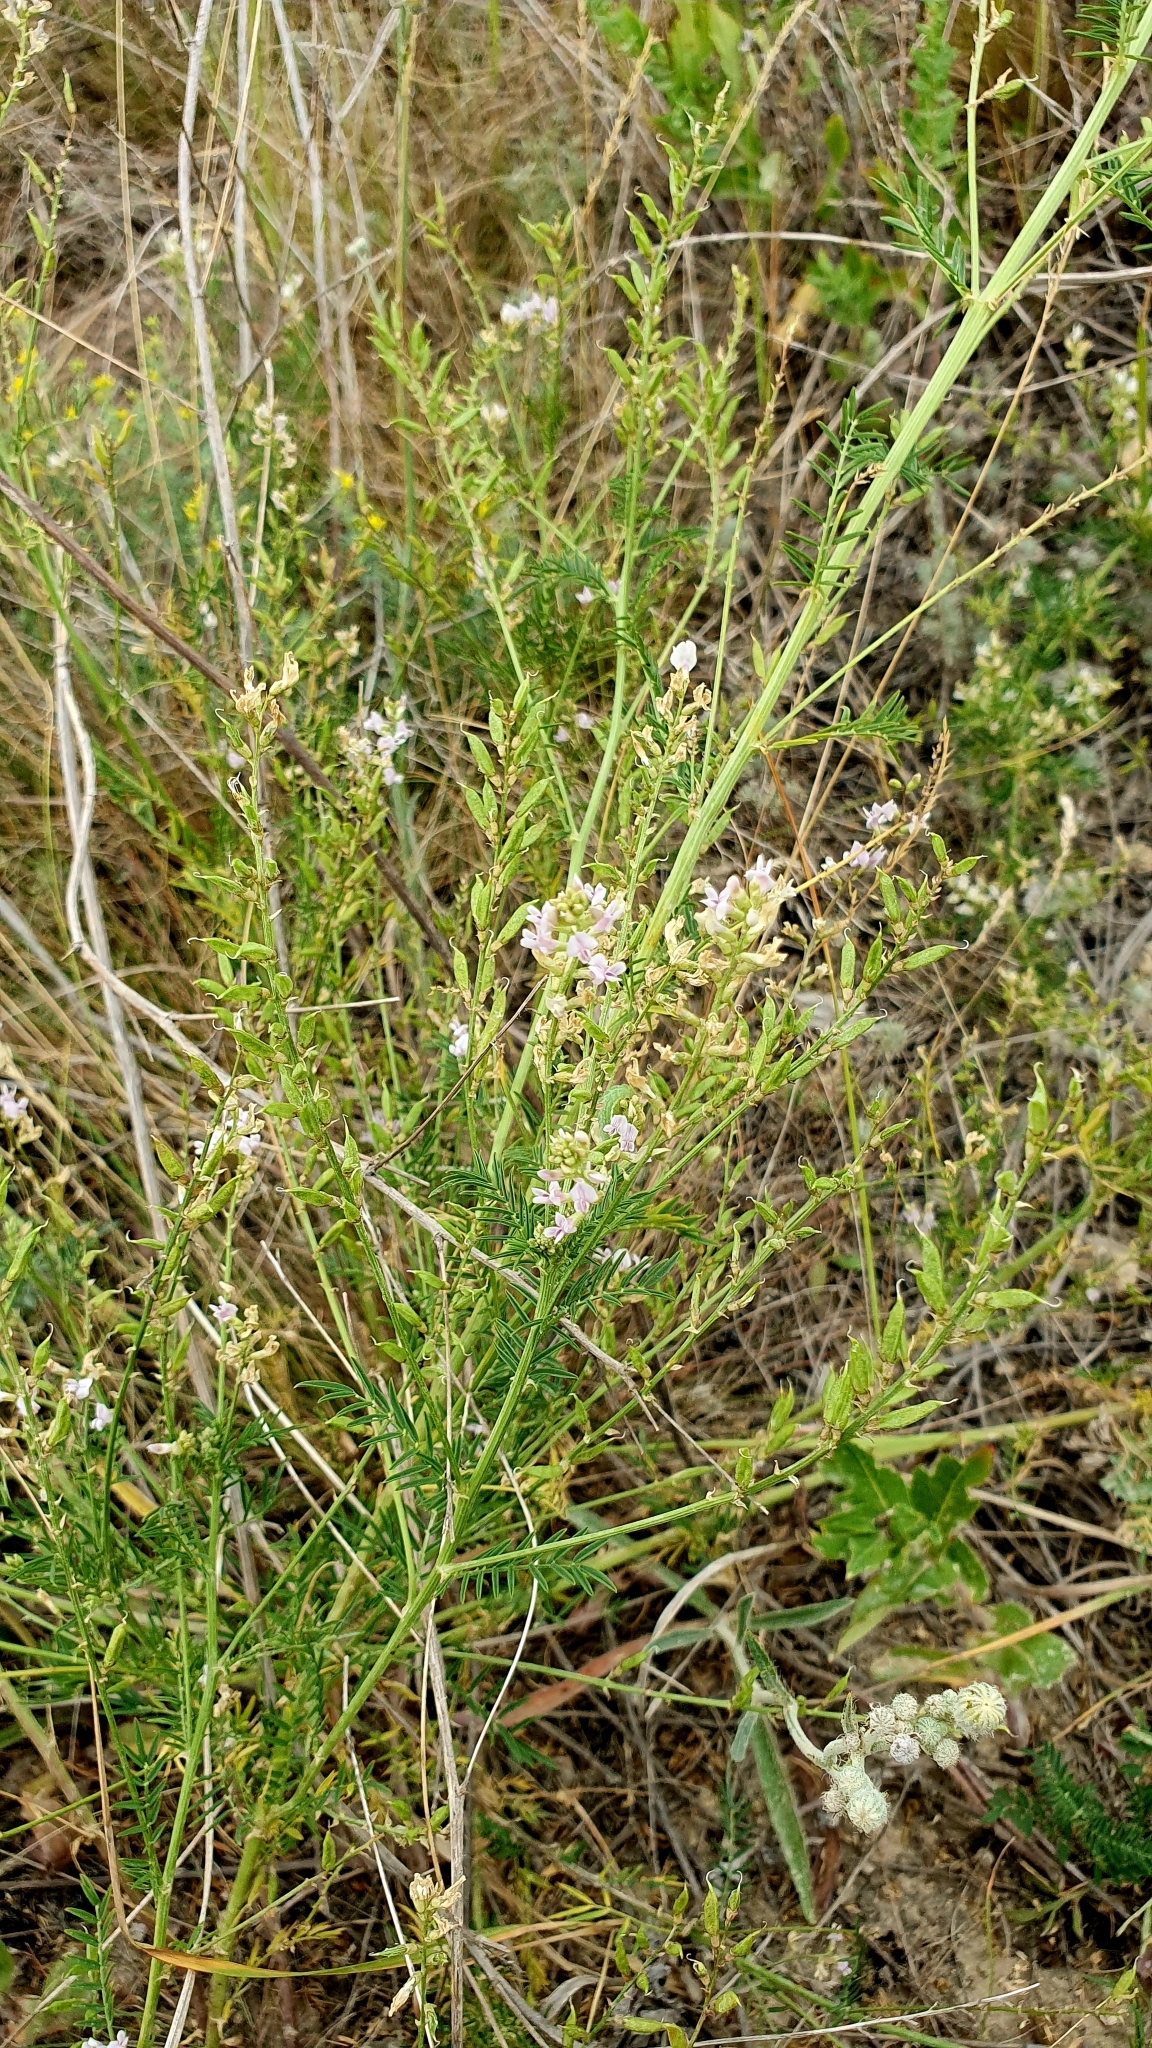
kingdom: Plantae
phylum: Tracheophyta
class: Magnoliopsida
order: Fabales
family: Fabaceae
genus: Astragalus
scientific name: Astragalus sulcatus
